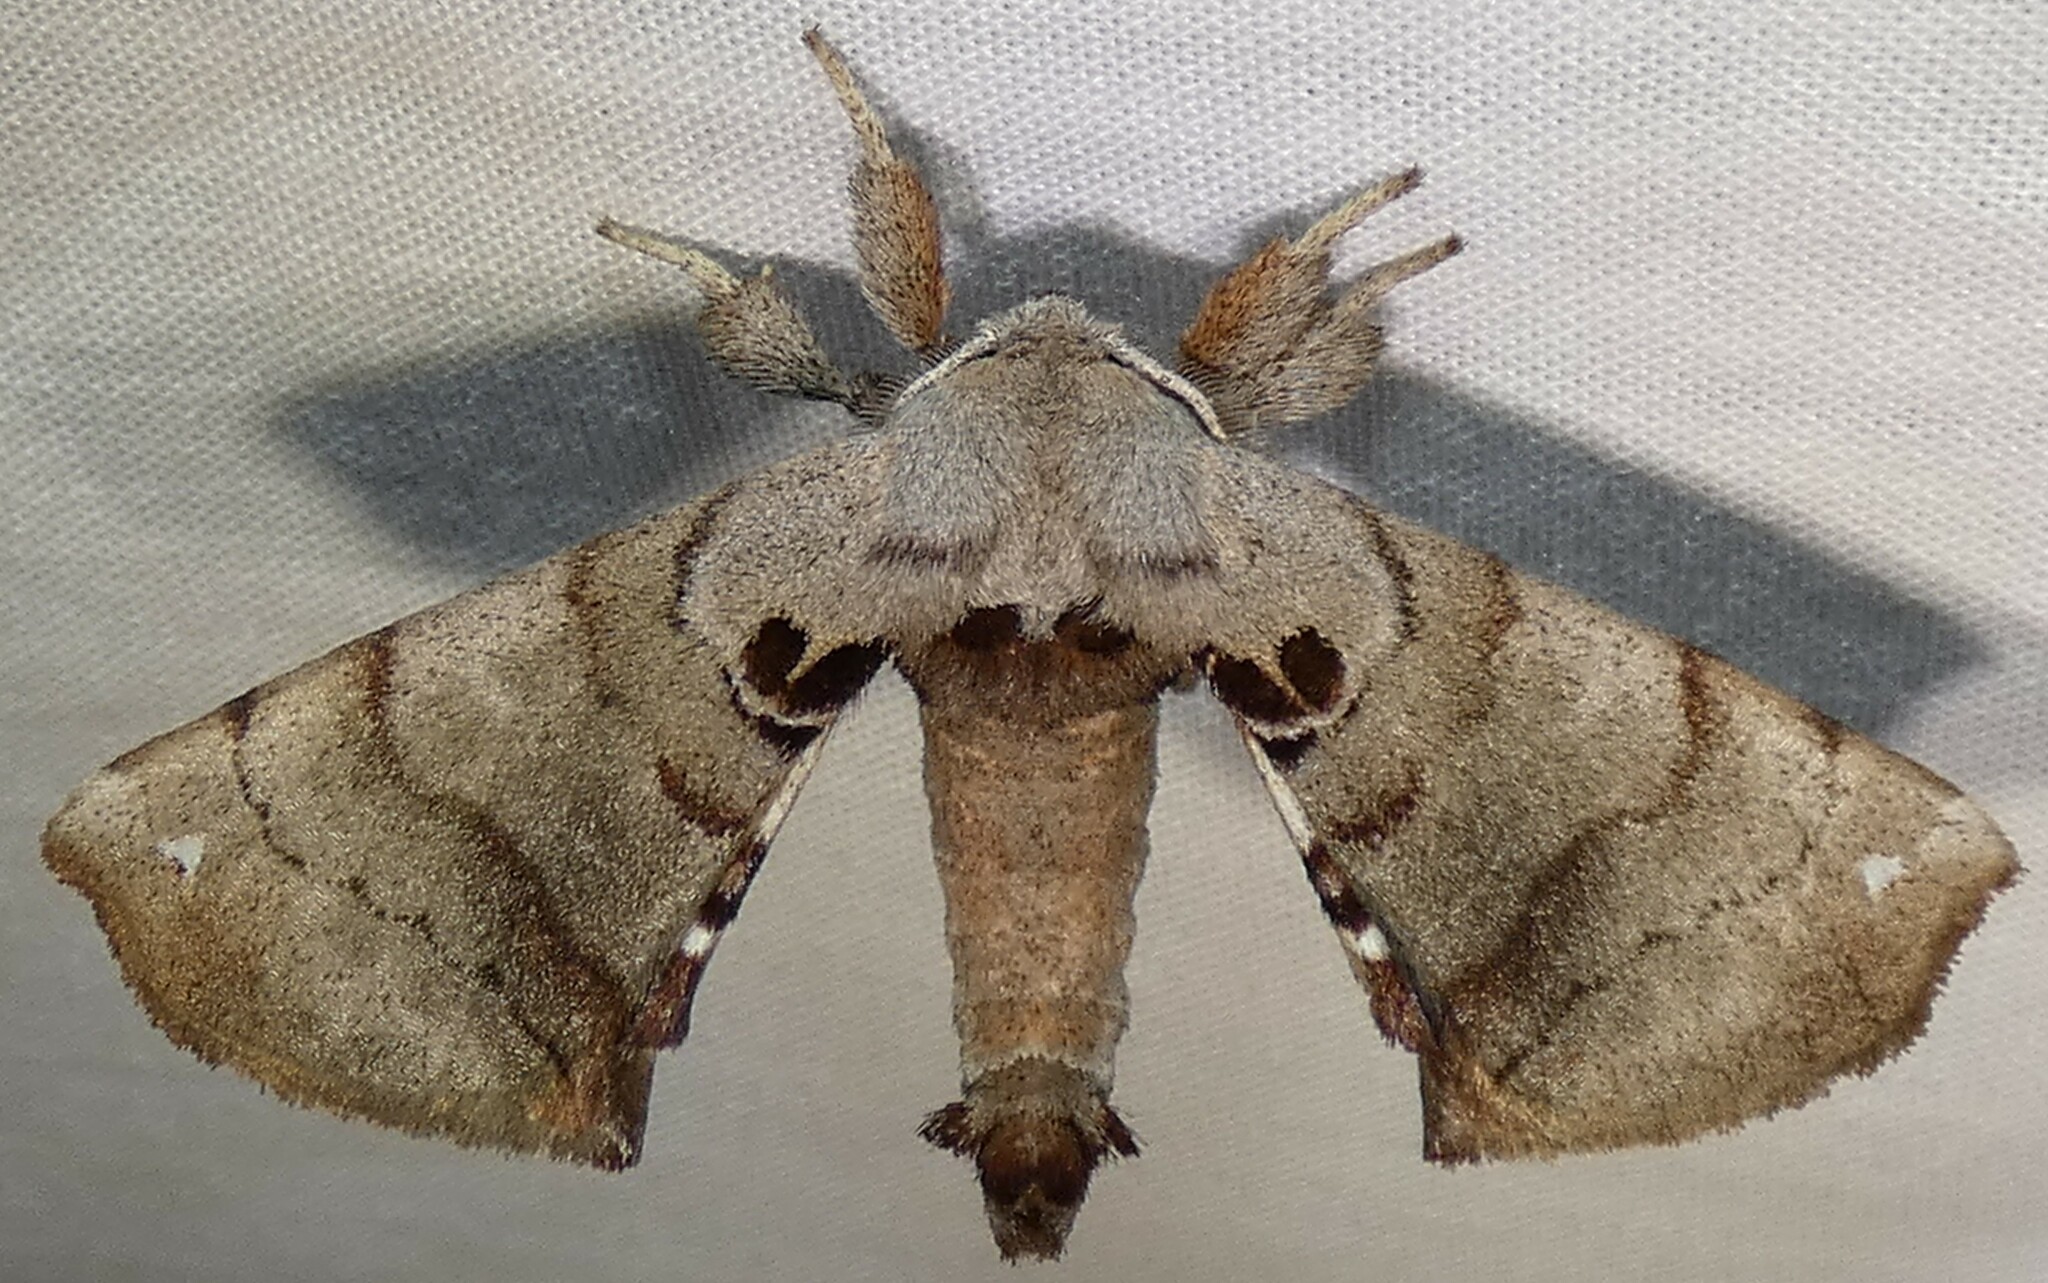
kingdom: Animalia
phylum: Arthropoda
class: Insecta
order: Lepidoptera
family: Apatelodidae
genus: Hygrochroa
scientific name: Hygrochroa Apatelodes torrefacta
